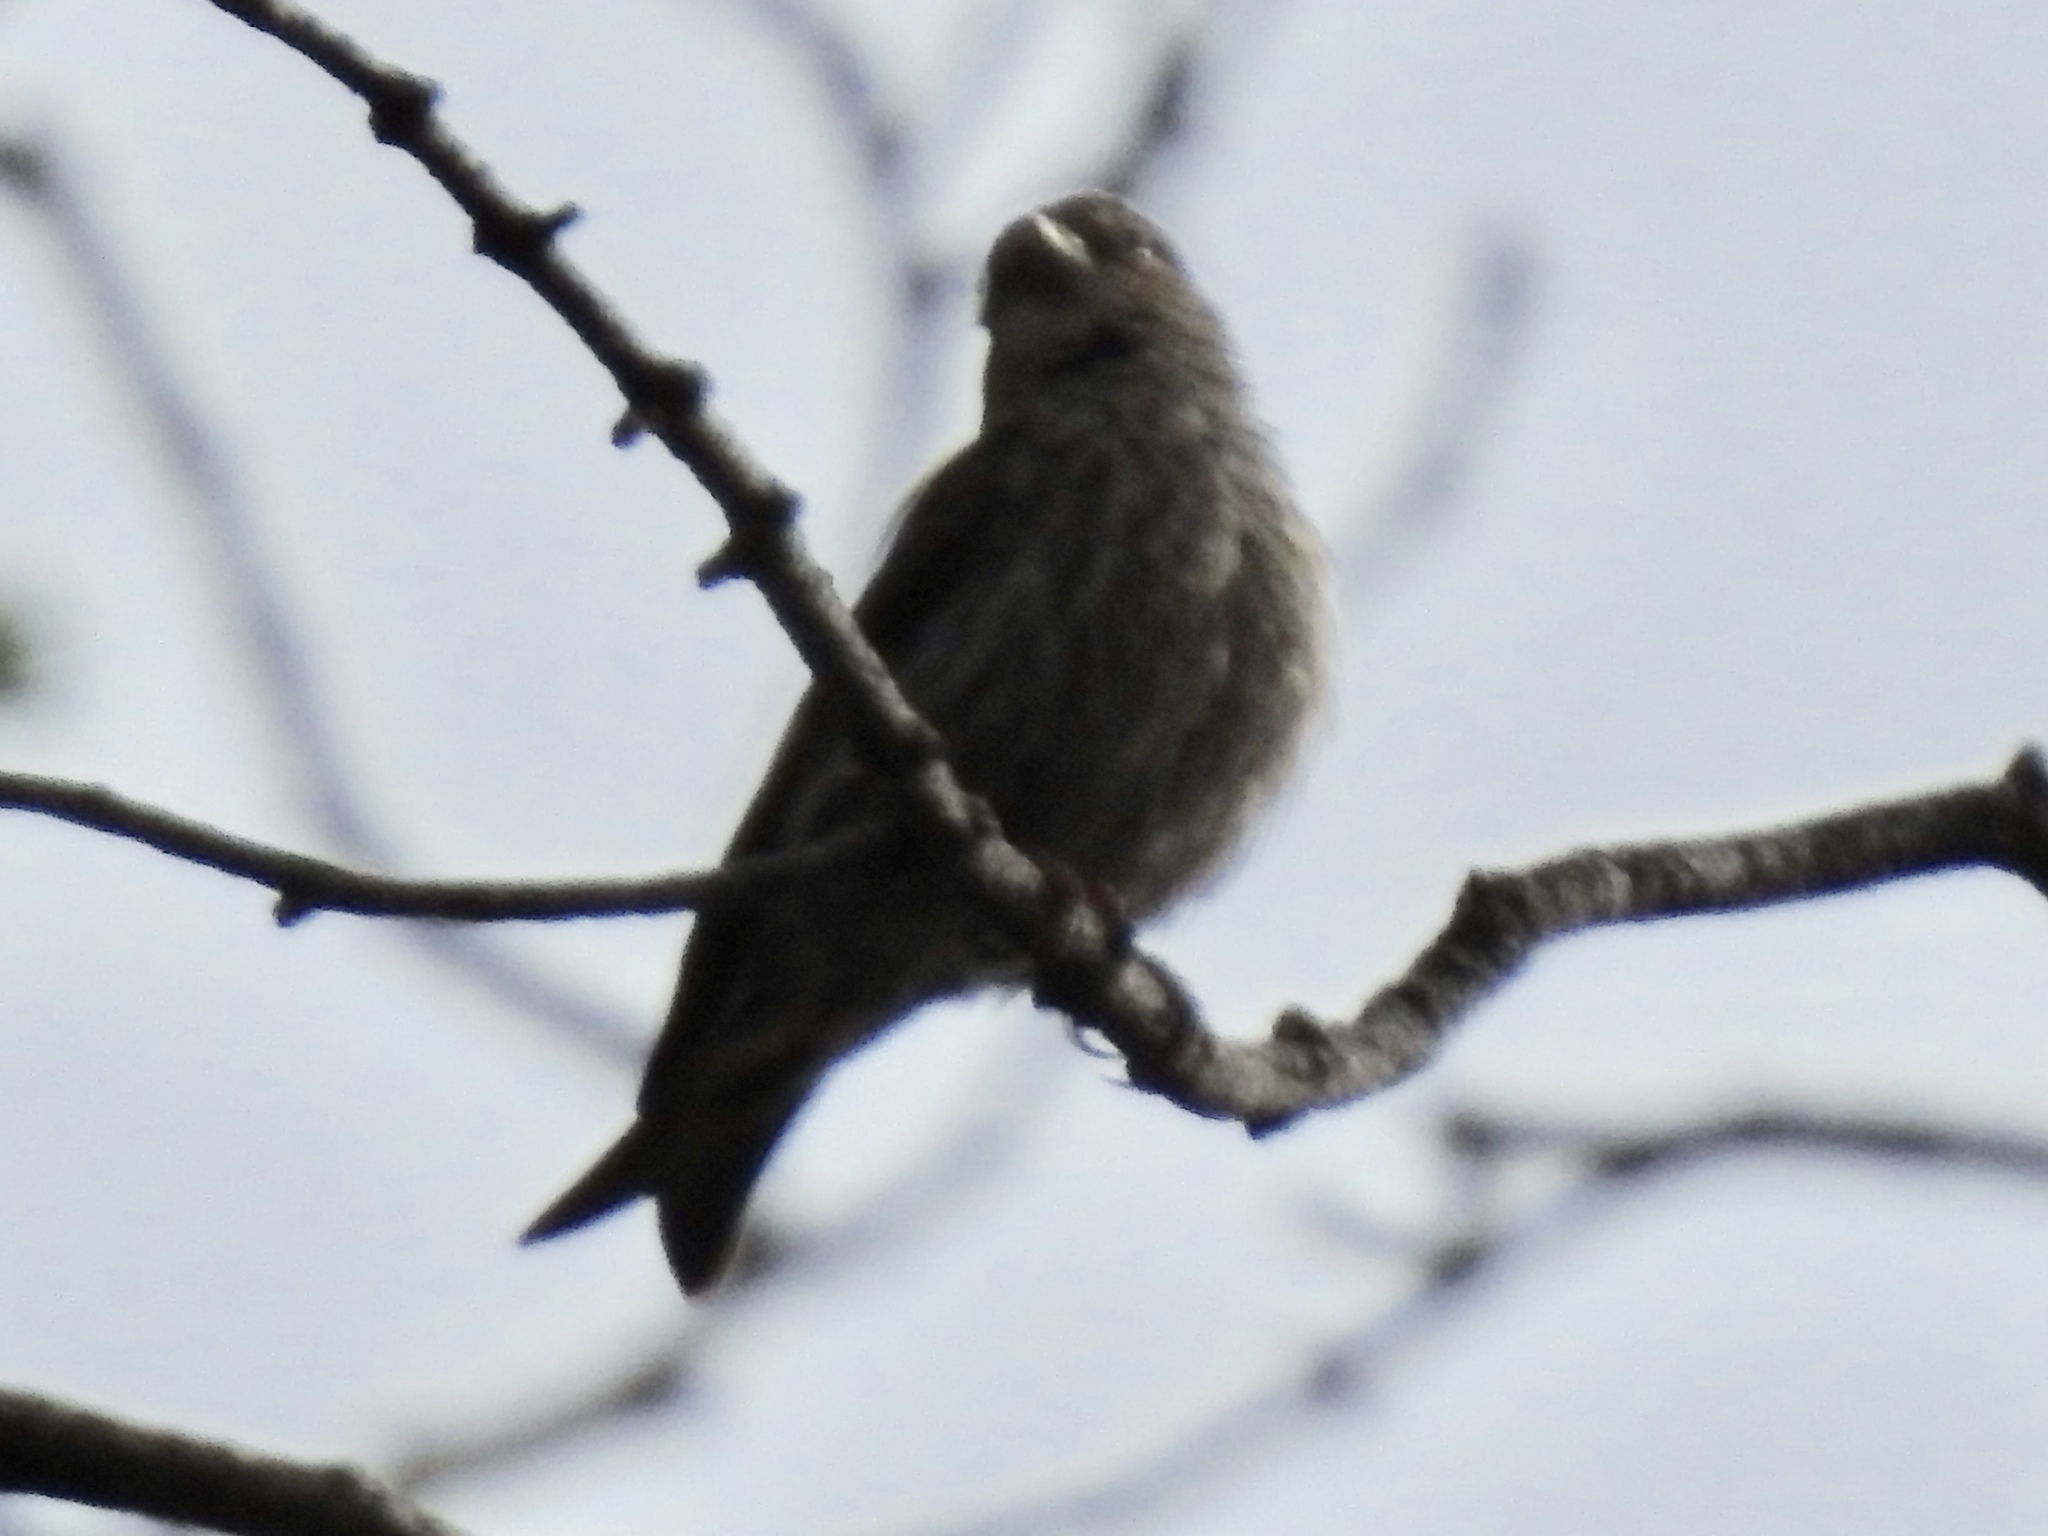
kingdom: Animalia
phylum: Chordata
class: Aves
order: Passeriformes
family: Fringillidae
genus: Spinus
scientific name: Spinus pinus
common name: Pine siskin
